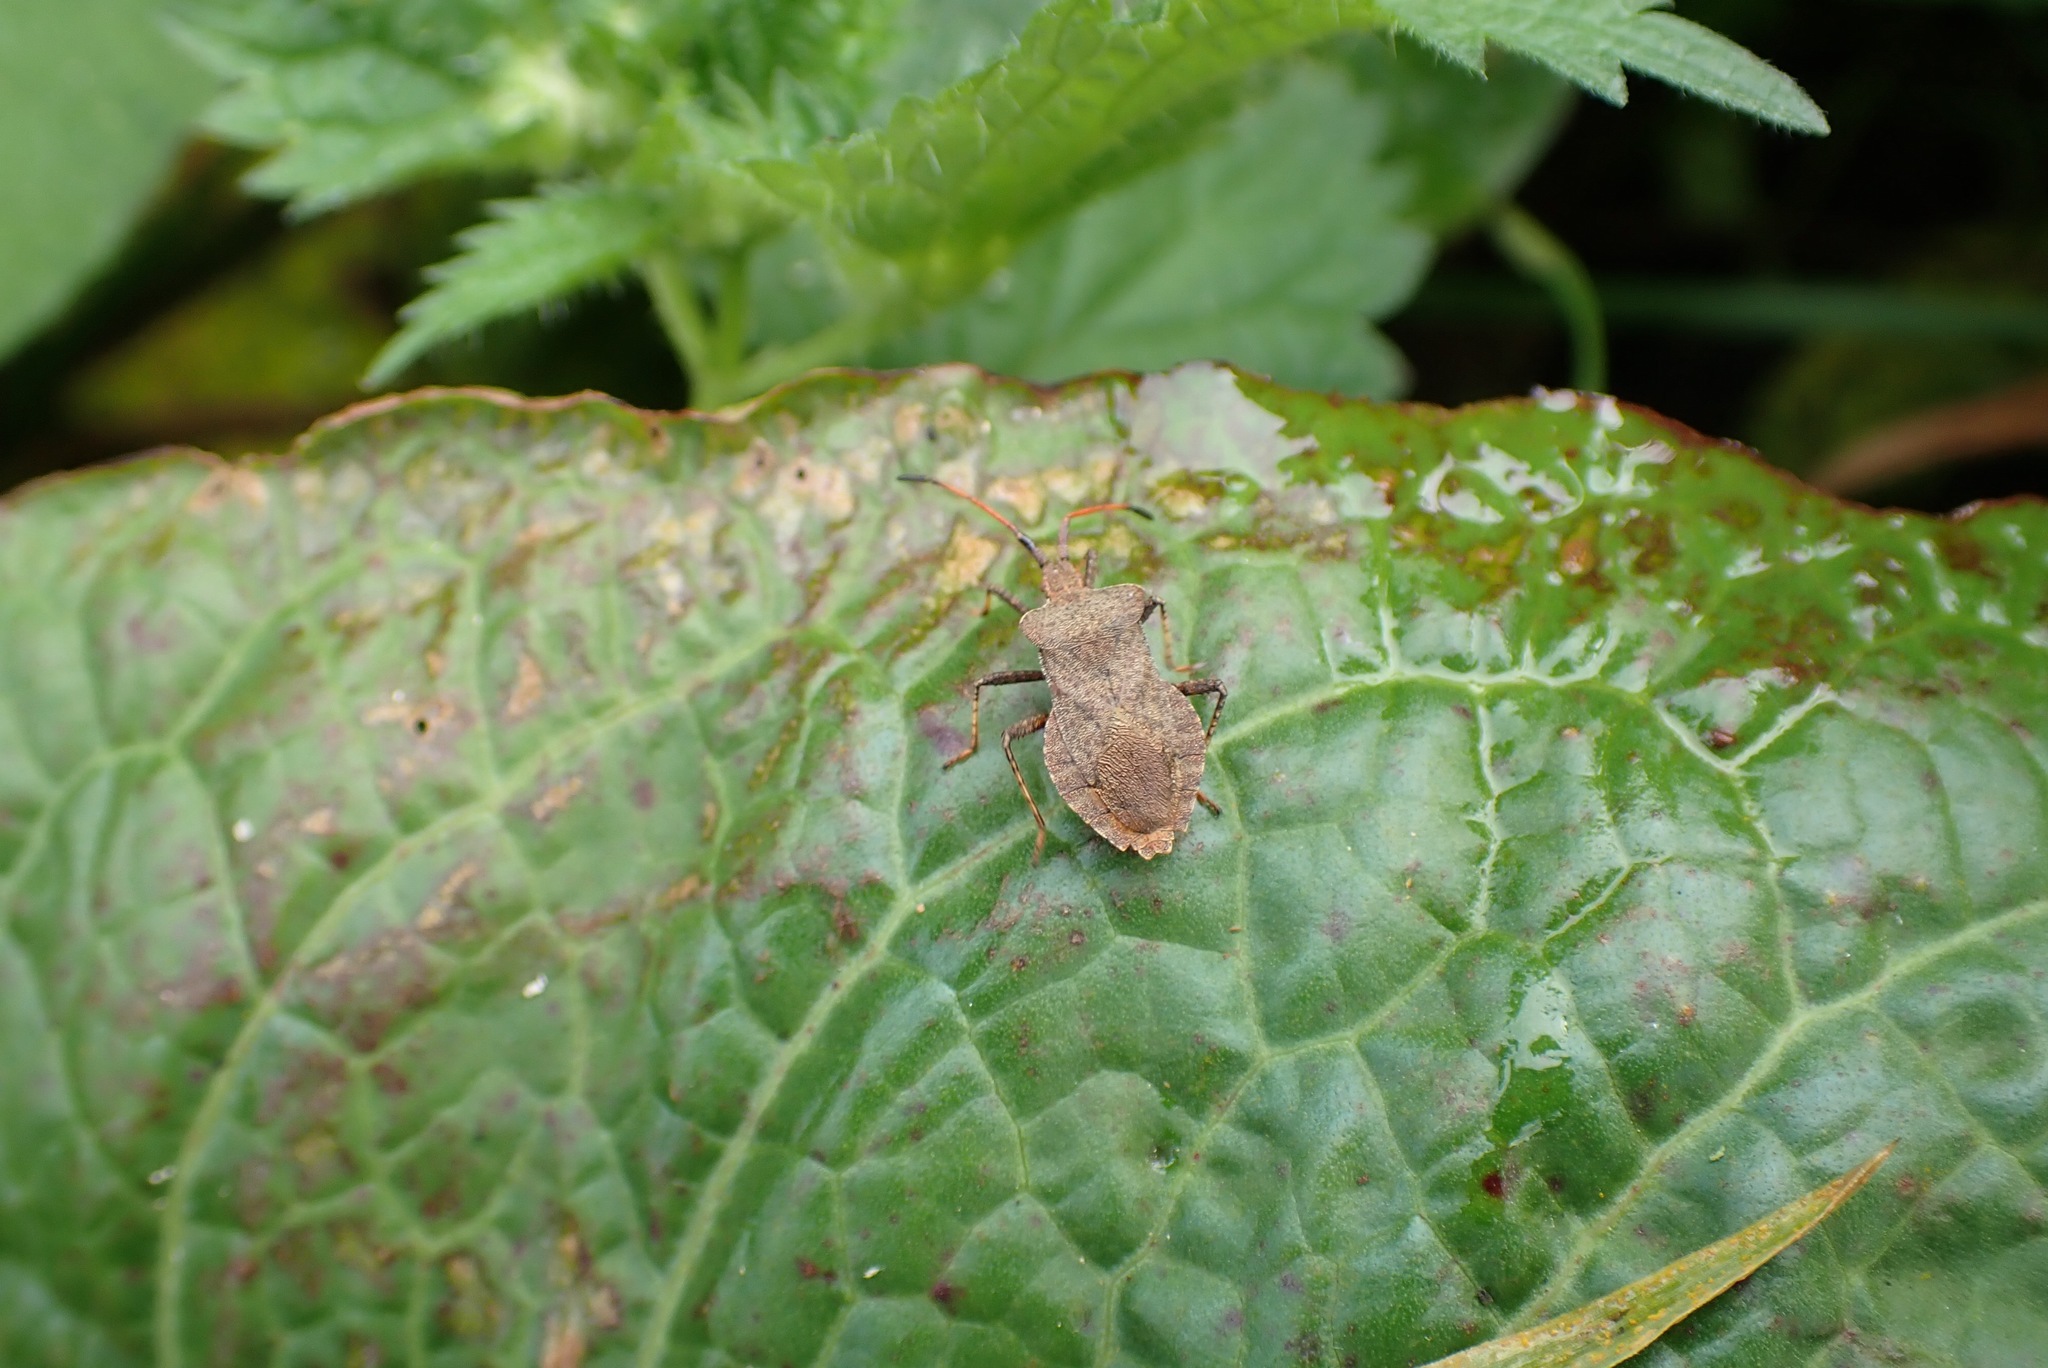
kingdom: Animalia
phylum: Arthropoda
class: Insecta
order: Hemiptera
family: Coreidae
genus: Coreus
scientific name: Coreus marginatus
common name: Dock bug
